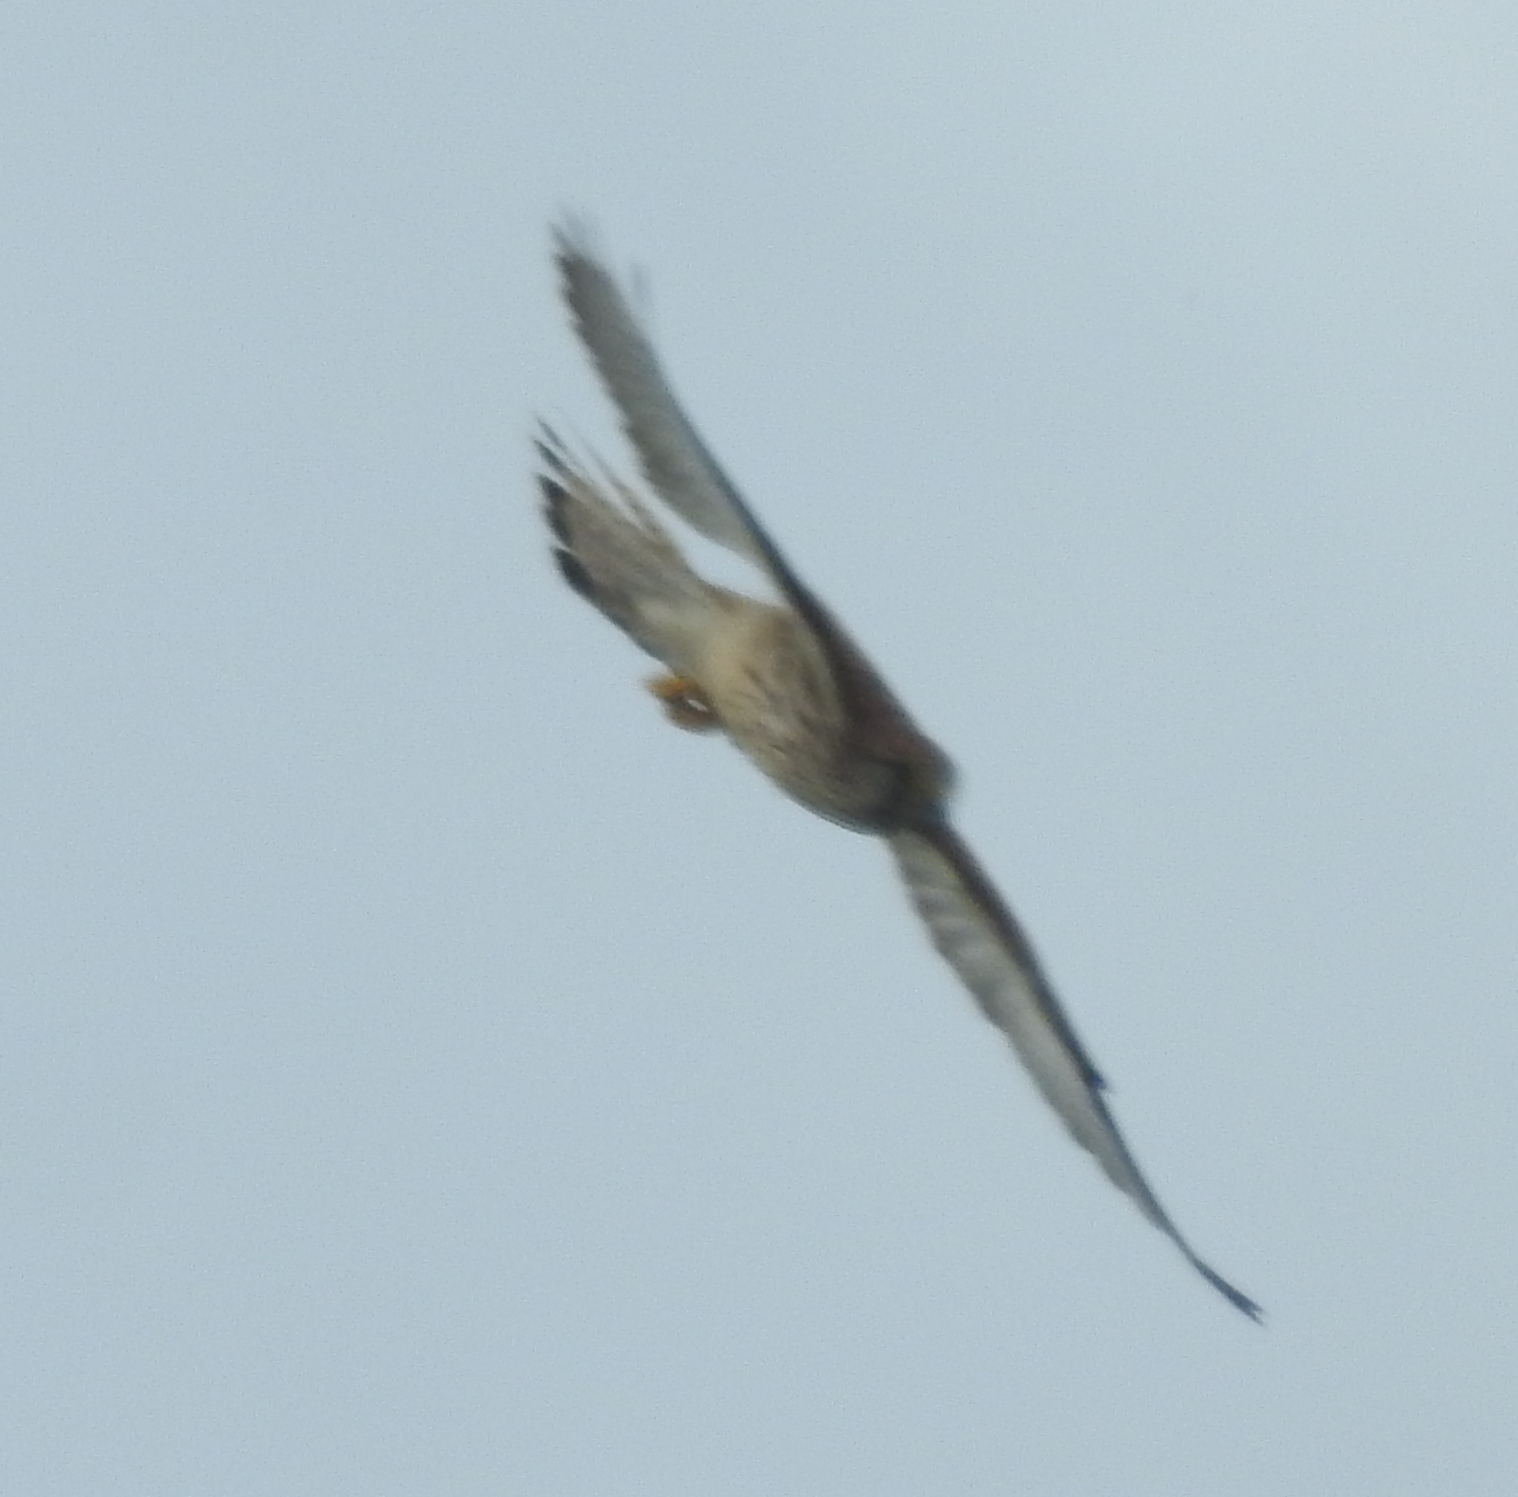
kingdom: Animalia
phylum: Chordata
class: Aves
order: Falconiformes
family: Falconidae
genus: Falco
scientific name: Falco tinnunculus
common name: Common kestrel
